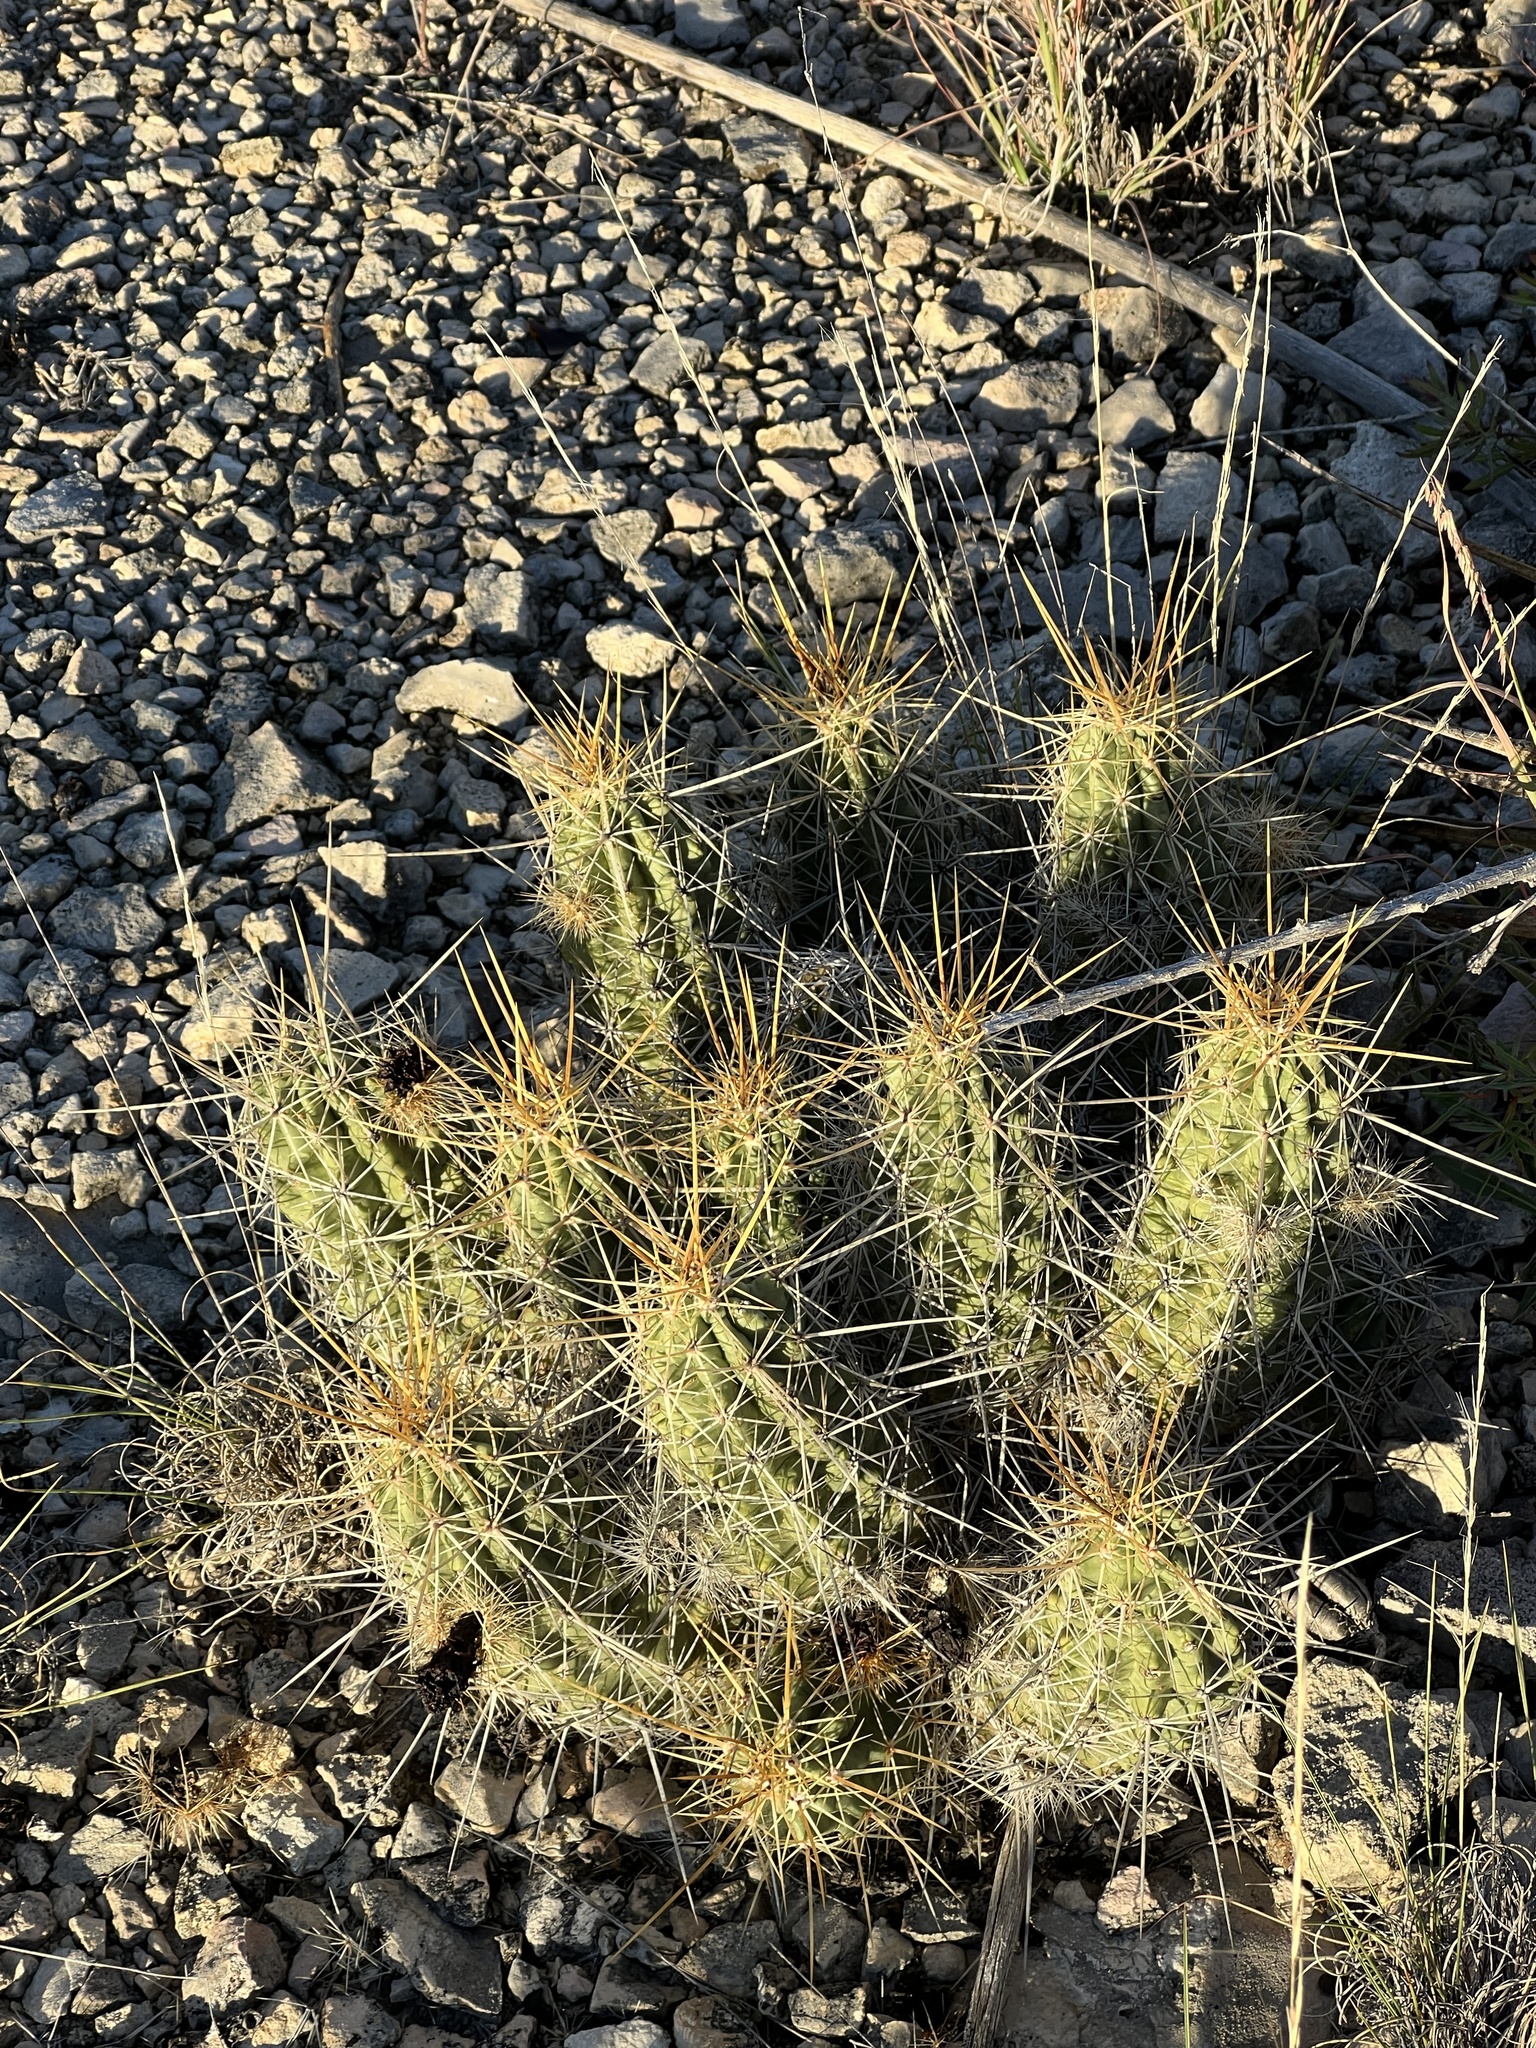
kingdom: Plantae
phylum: Tracheophyta
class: Magnoliopsida
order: Caryophyllales
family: Cactaceae
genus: Echinocereus
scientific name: Echinocereus enneacanthus
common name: Pitaya
